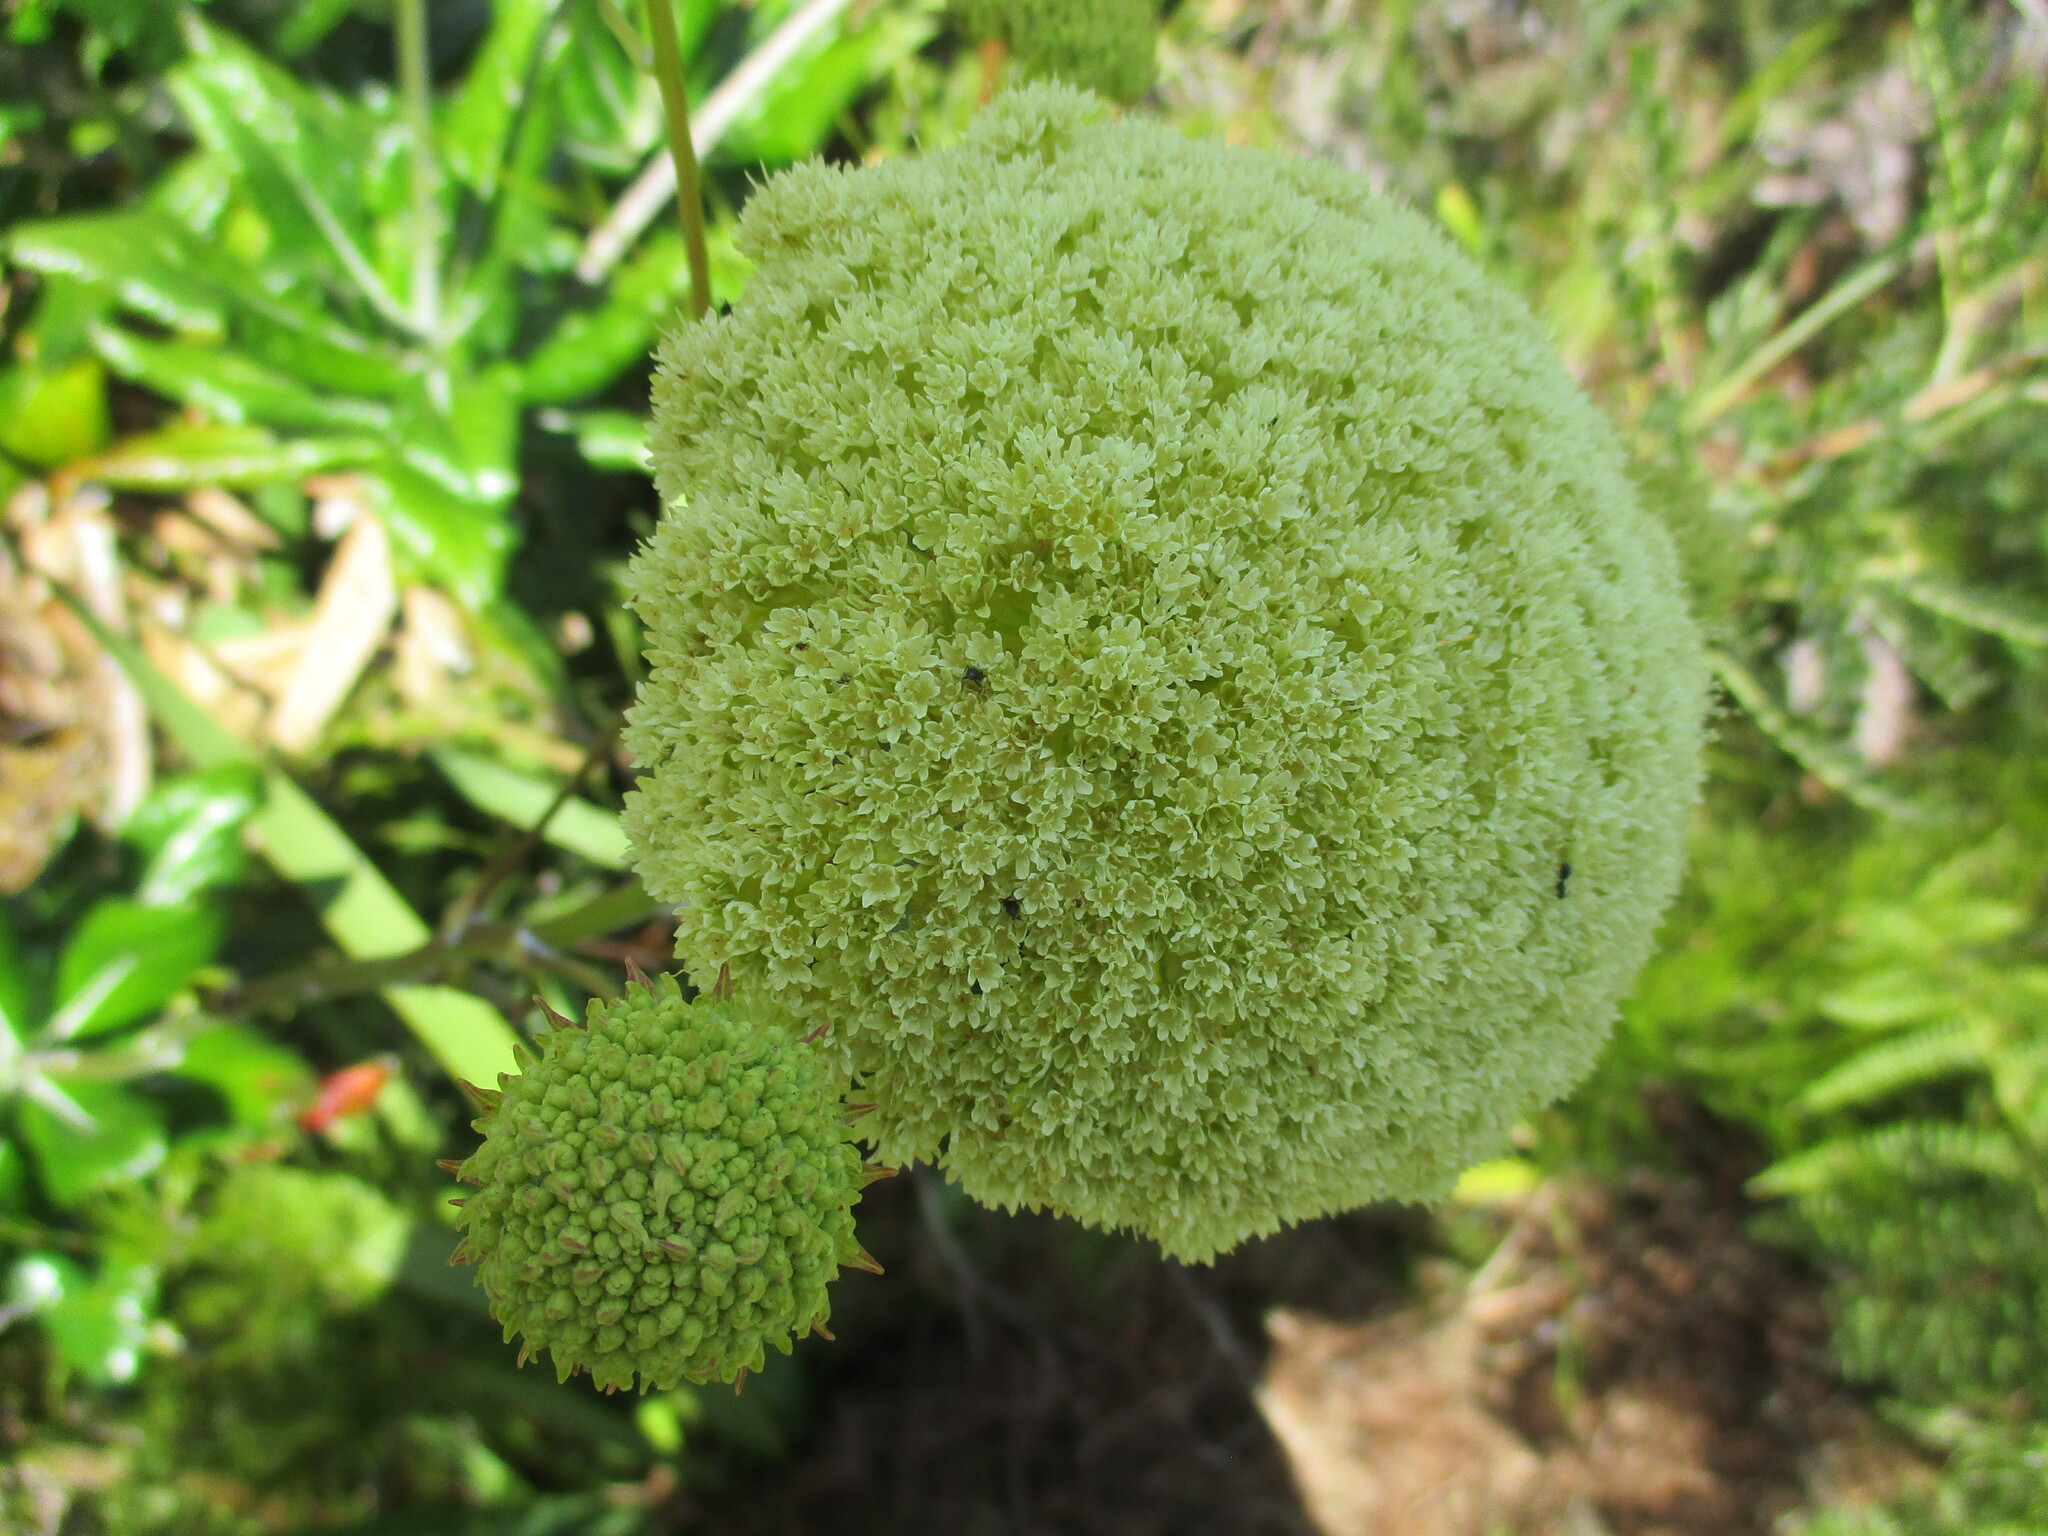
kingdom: Plantae
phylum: Tracheophyta
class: Magnoliopsida
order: Apiales
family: Apiaceae
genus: Hermas
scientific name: Hermas villosa
